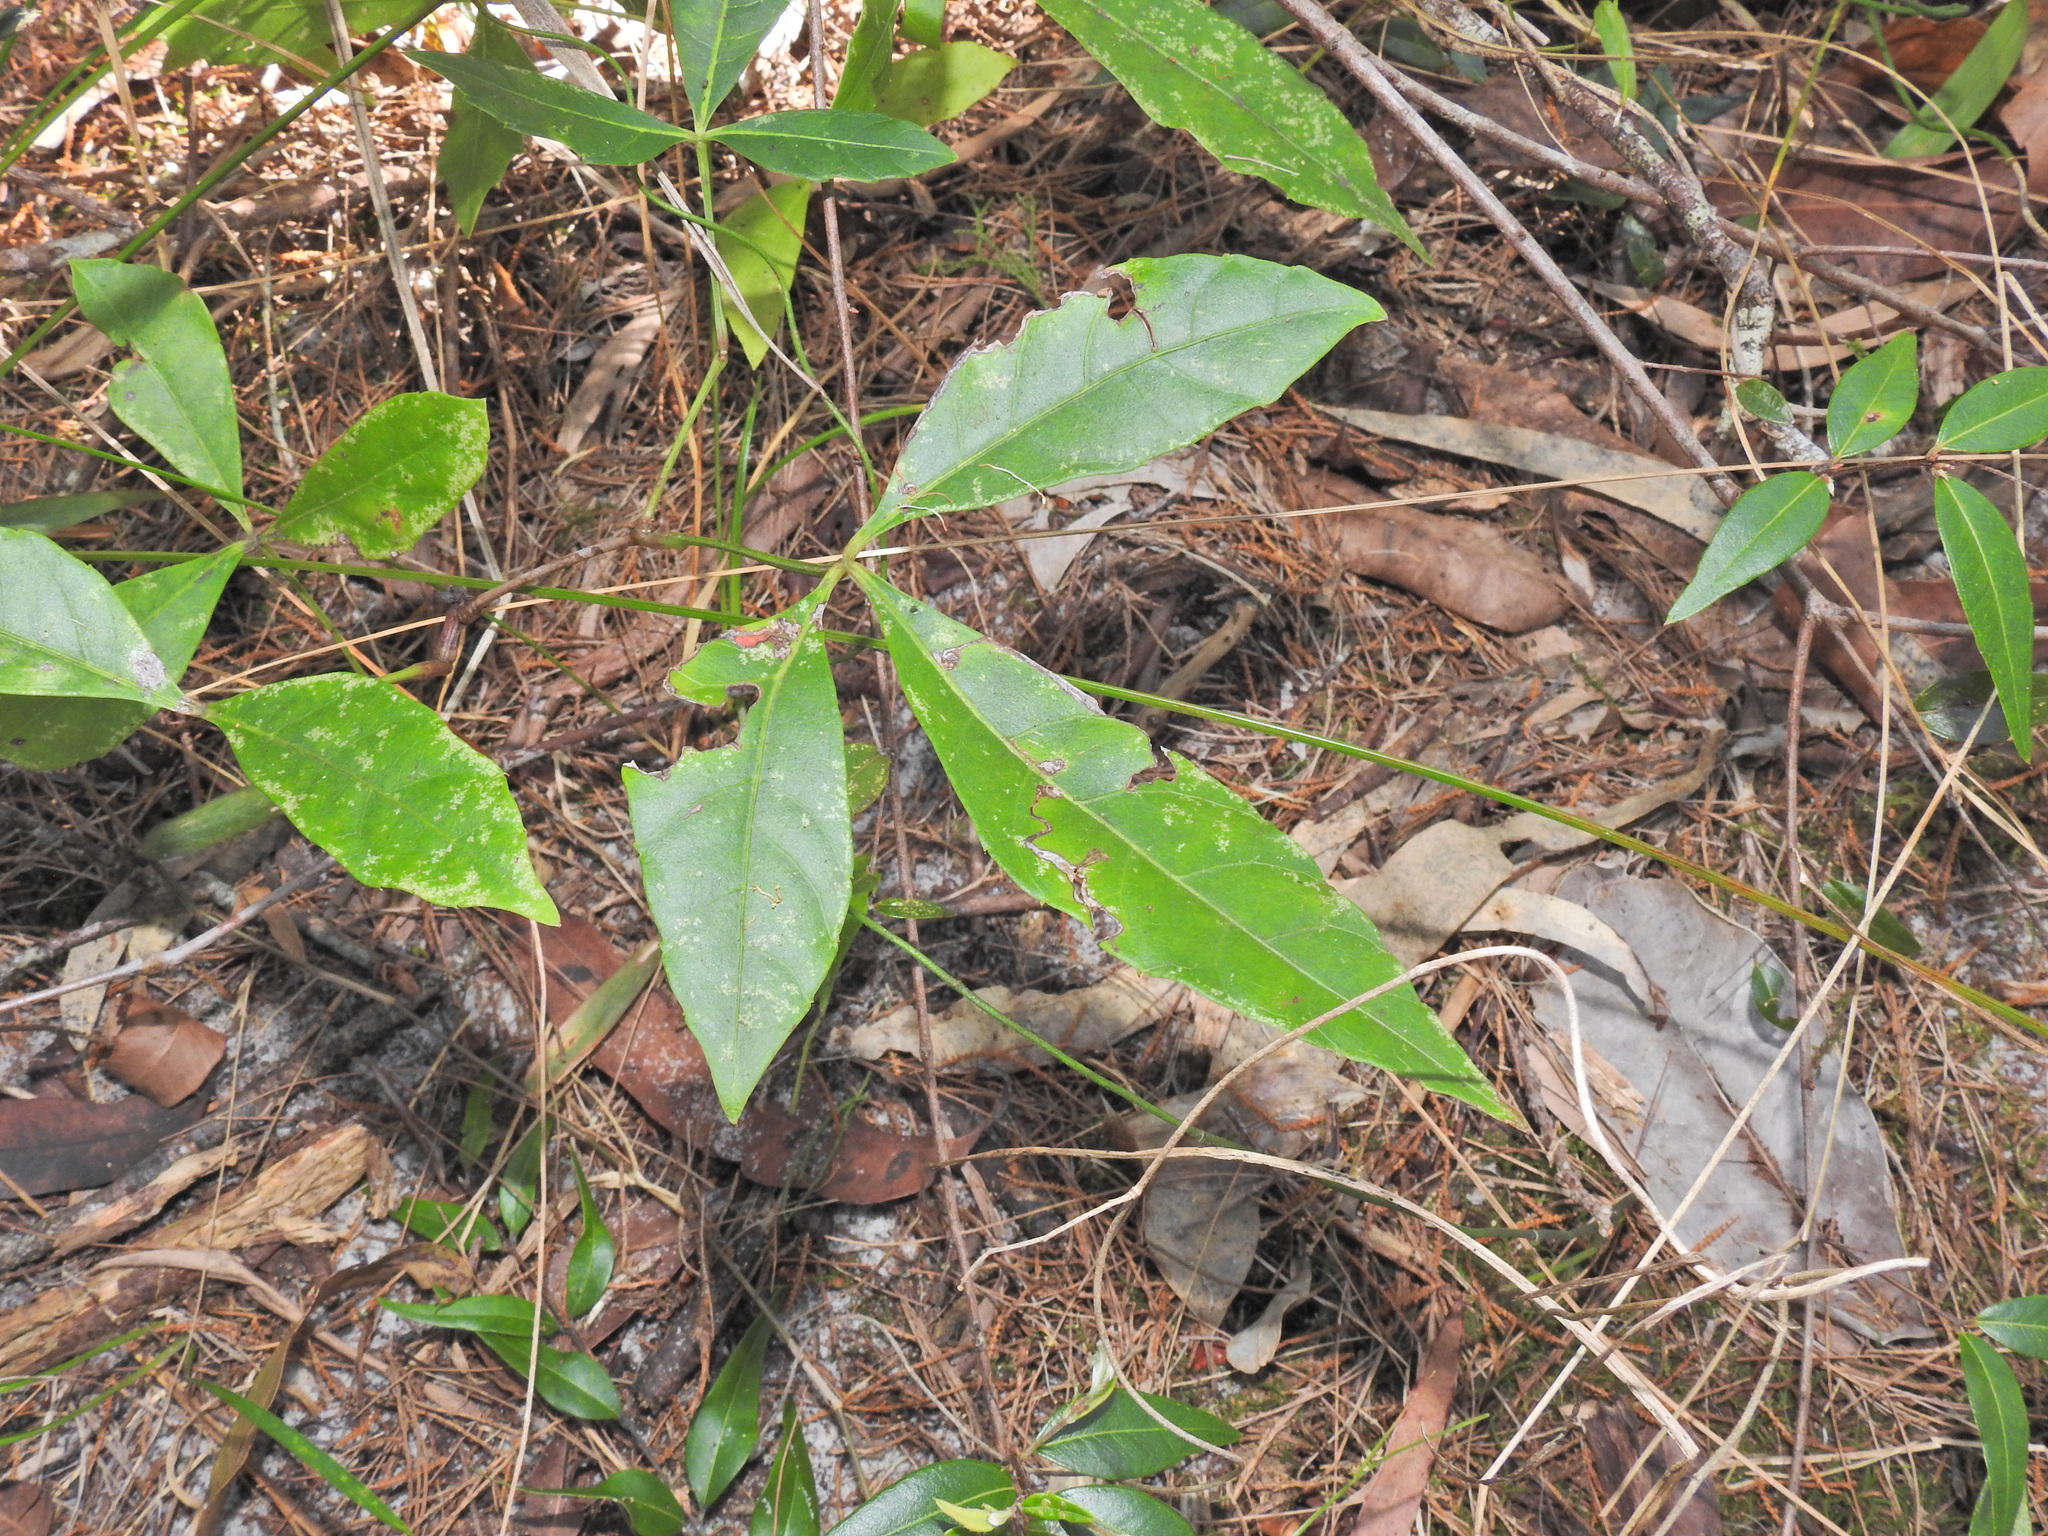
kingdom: Plantae
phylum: Tracheophyta
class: Magnoliopsida
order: Vitales
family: Vitaceae
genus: Clematicissus
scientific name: Clematicissus opaca
